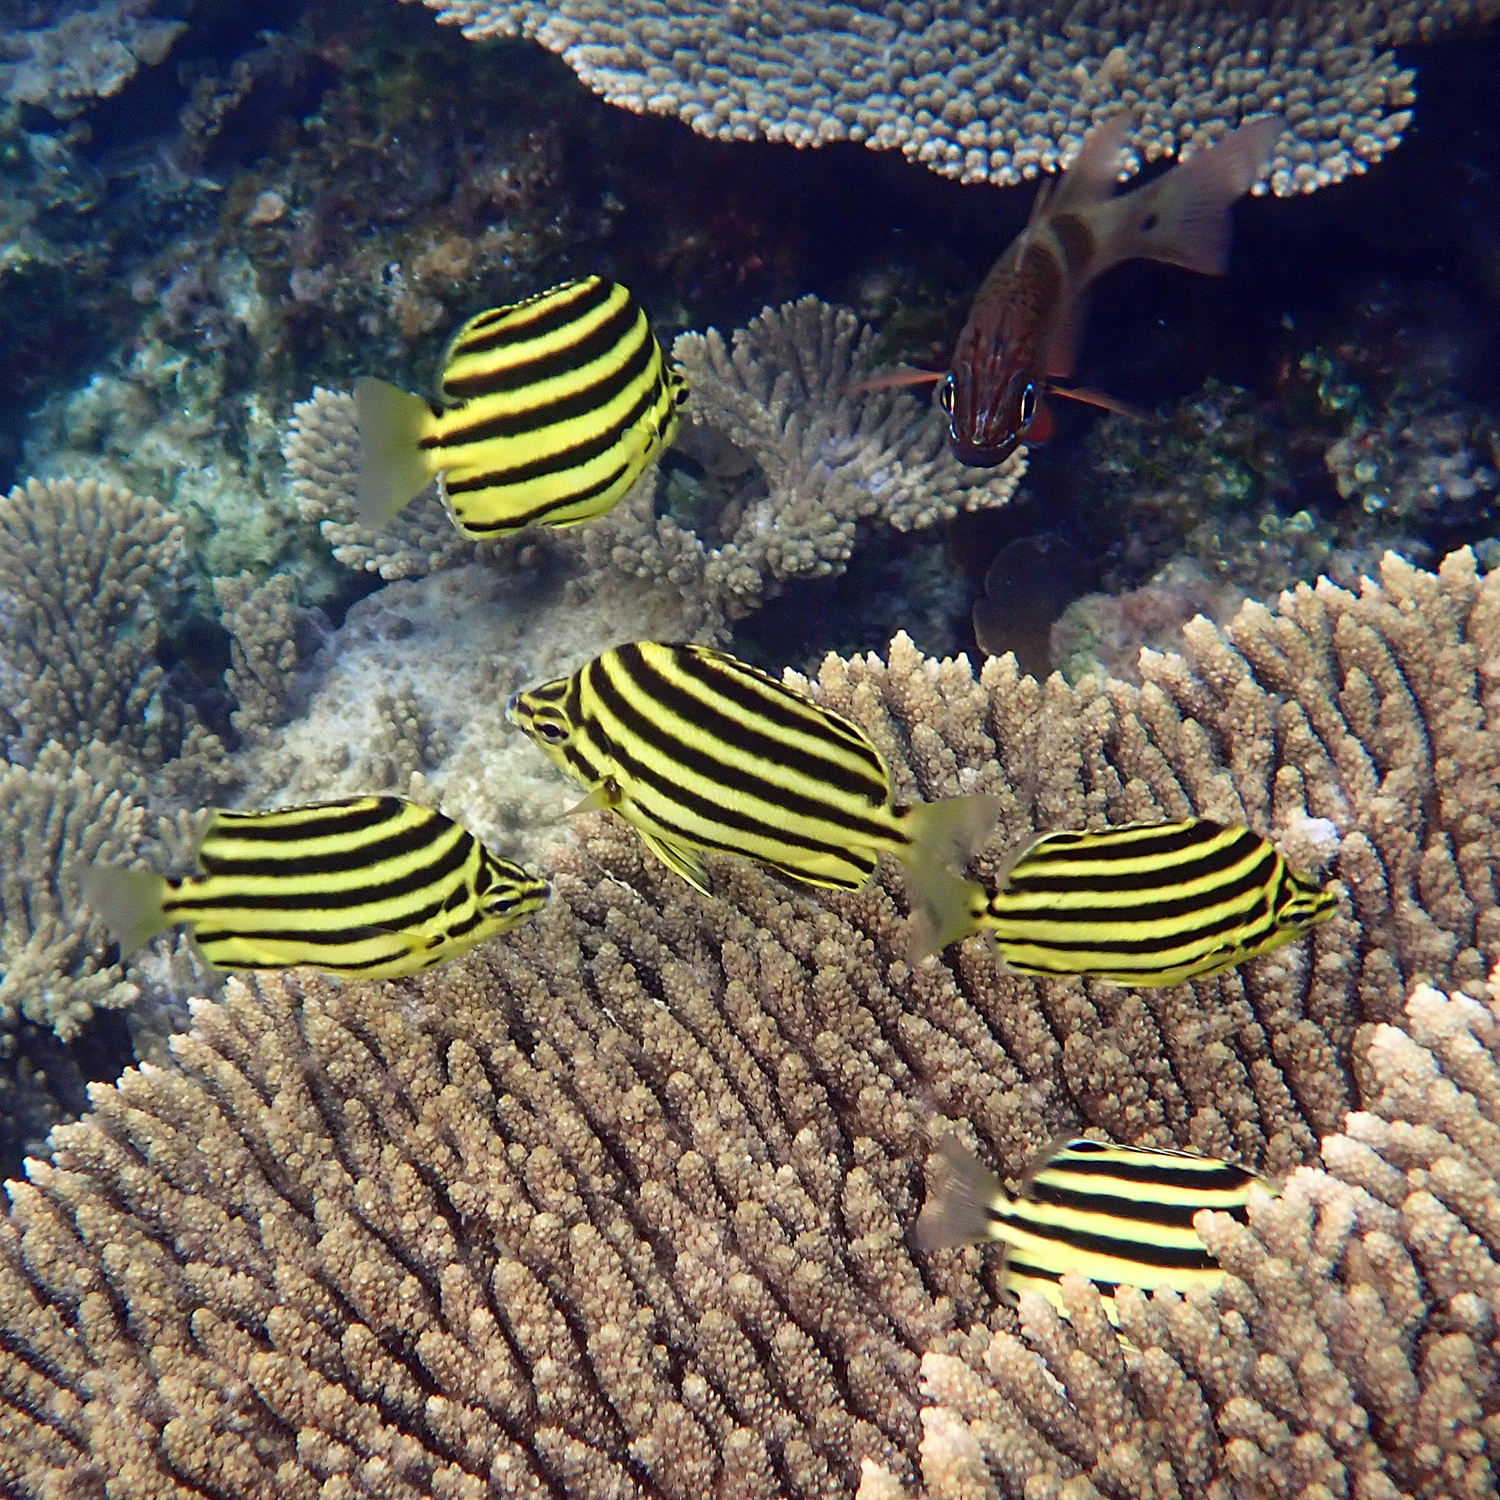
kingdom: Animalia
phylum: Chordata
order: Perciformes
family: Kyphosidae
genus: Microcanthus
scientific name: Microcanthus joyceae
